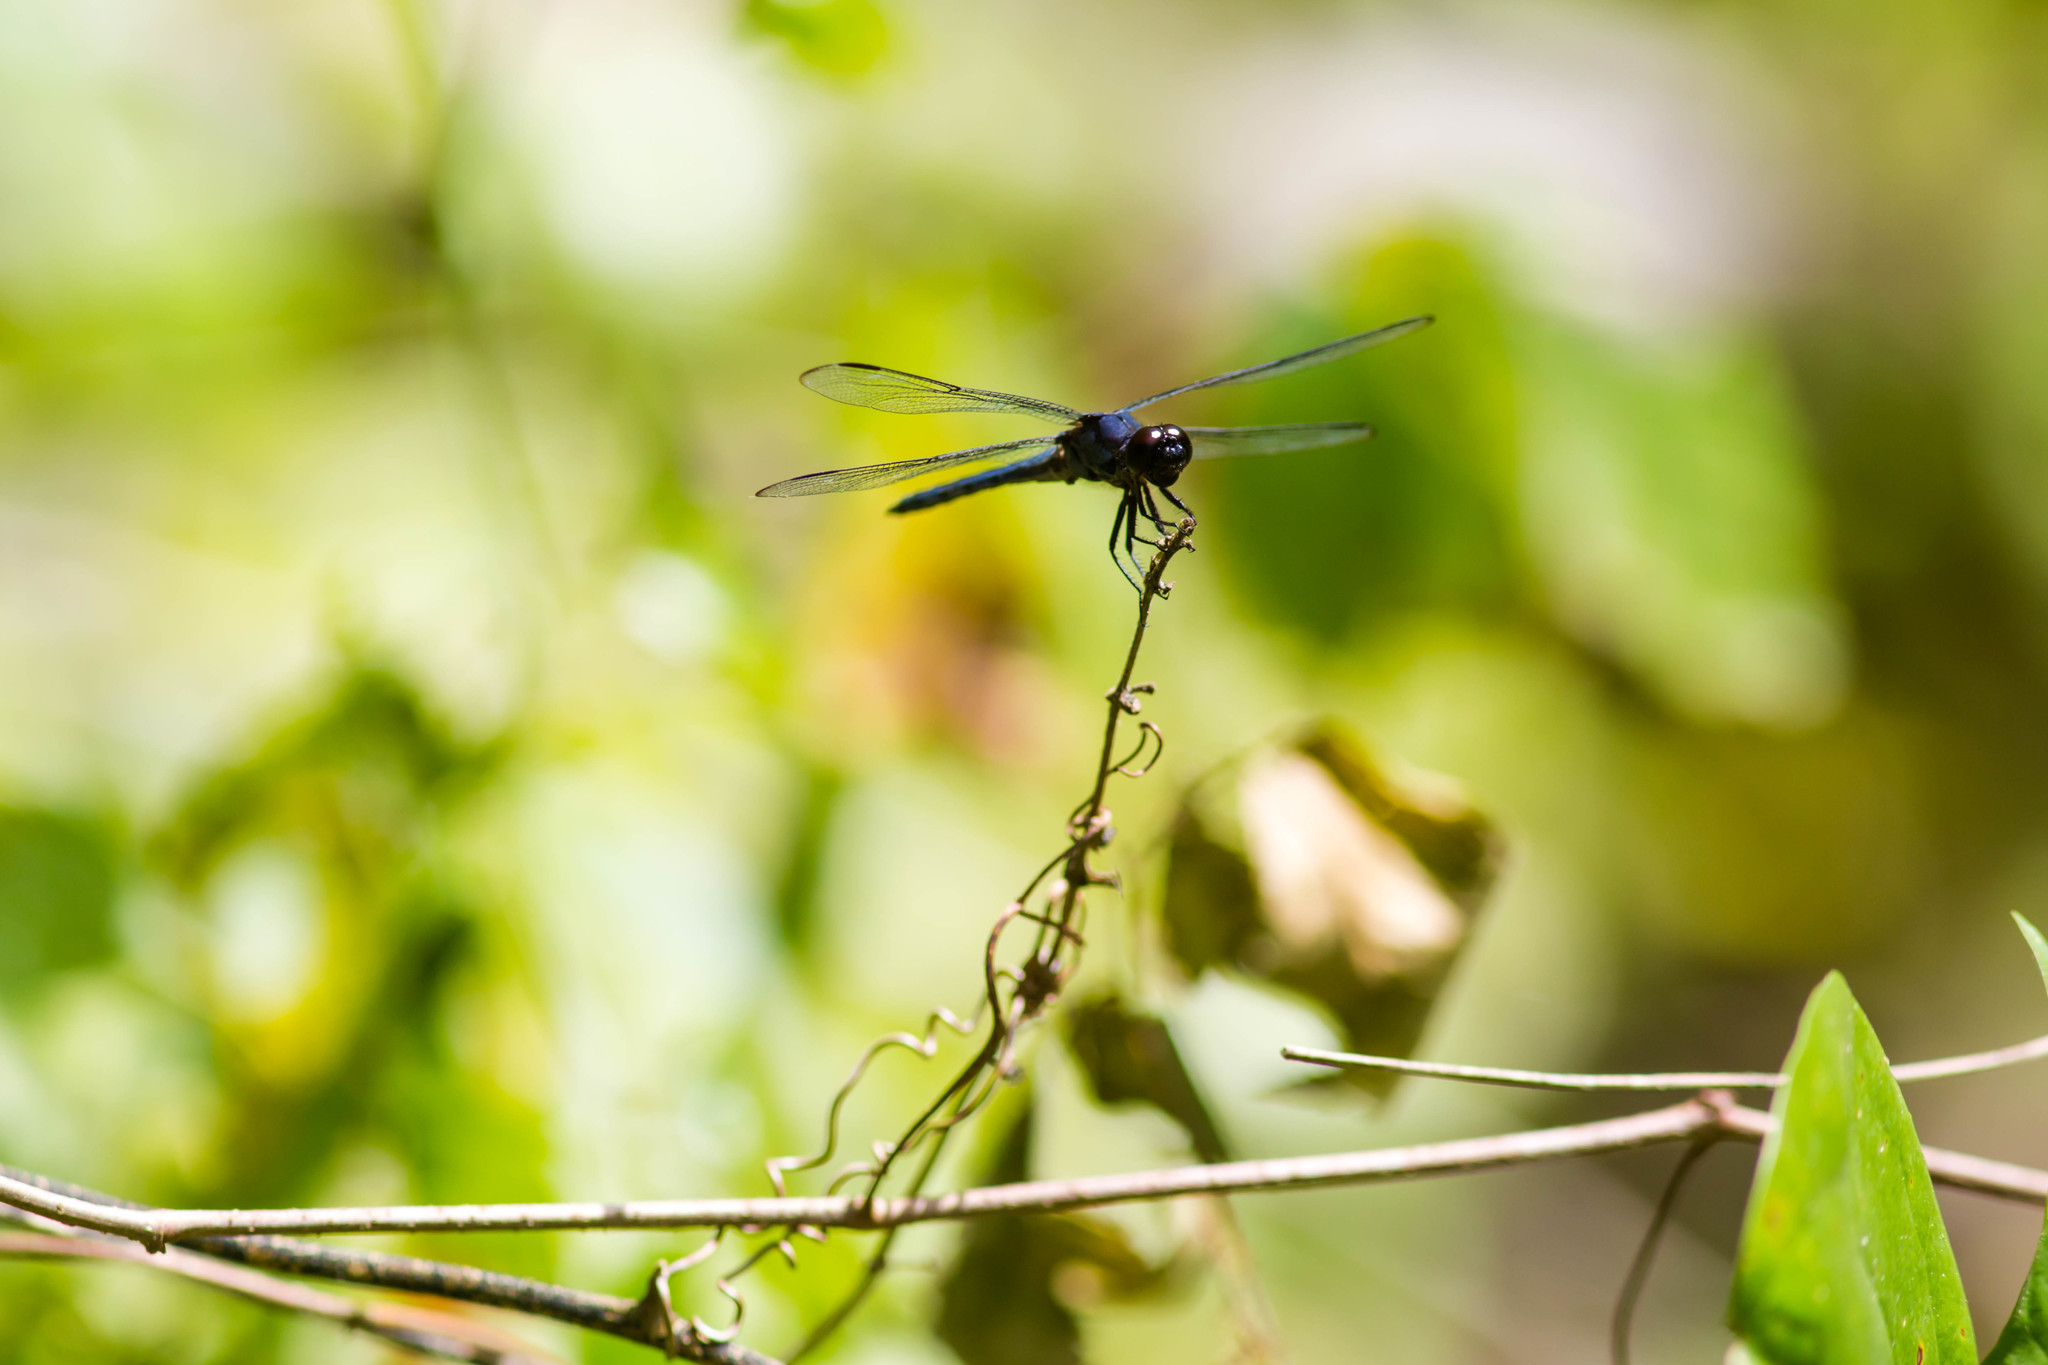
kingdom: Animalia
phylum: Arthropoda
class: Insecta
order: Odonata
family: Libellulidae
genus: Libellula
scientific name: Libellula incesta
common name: Slaty skimmer
